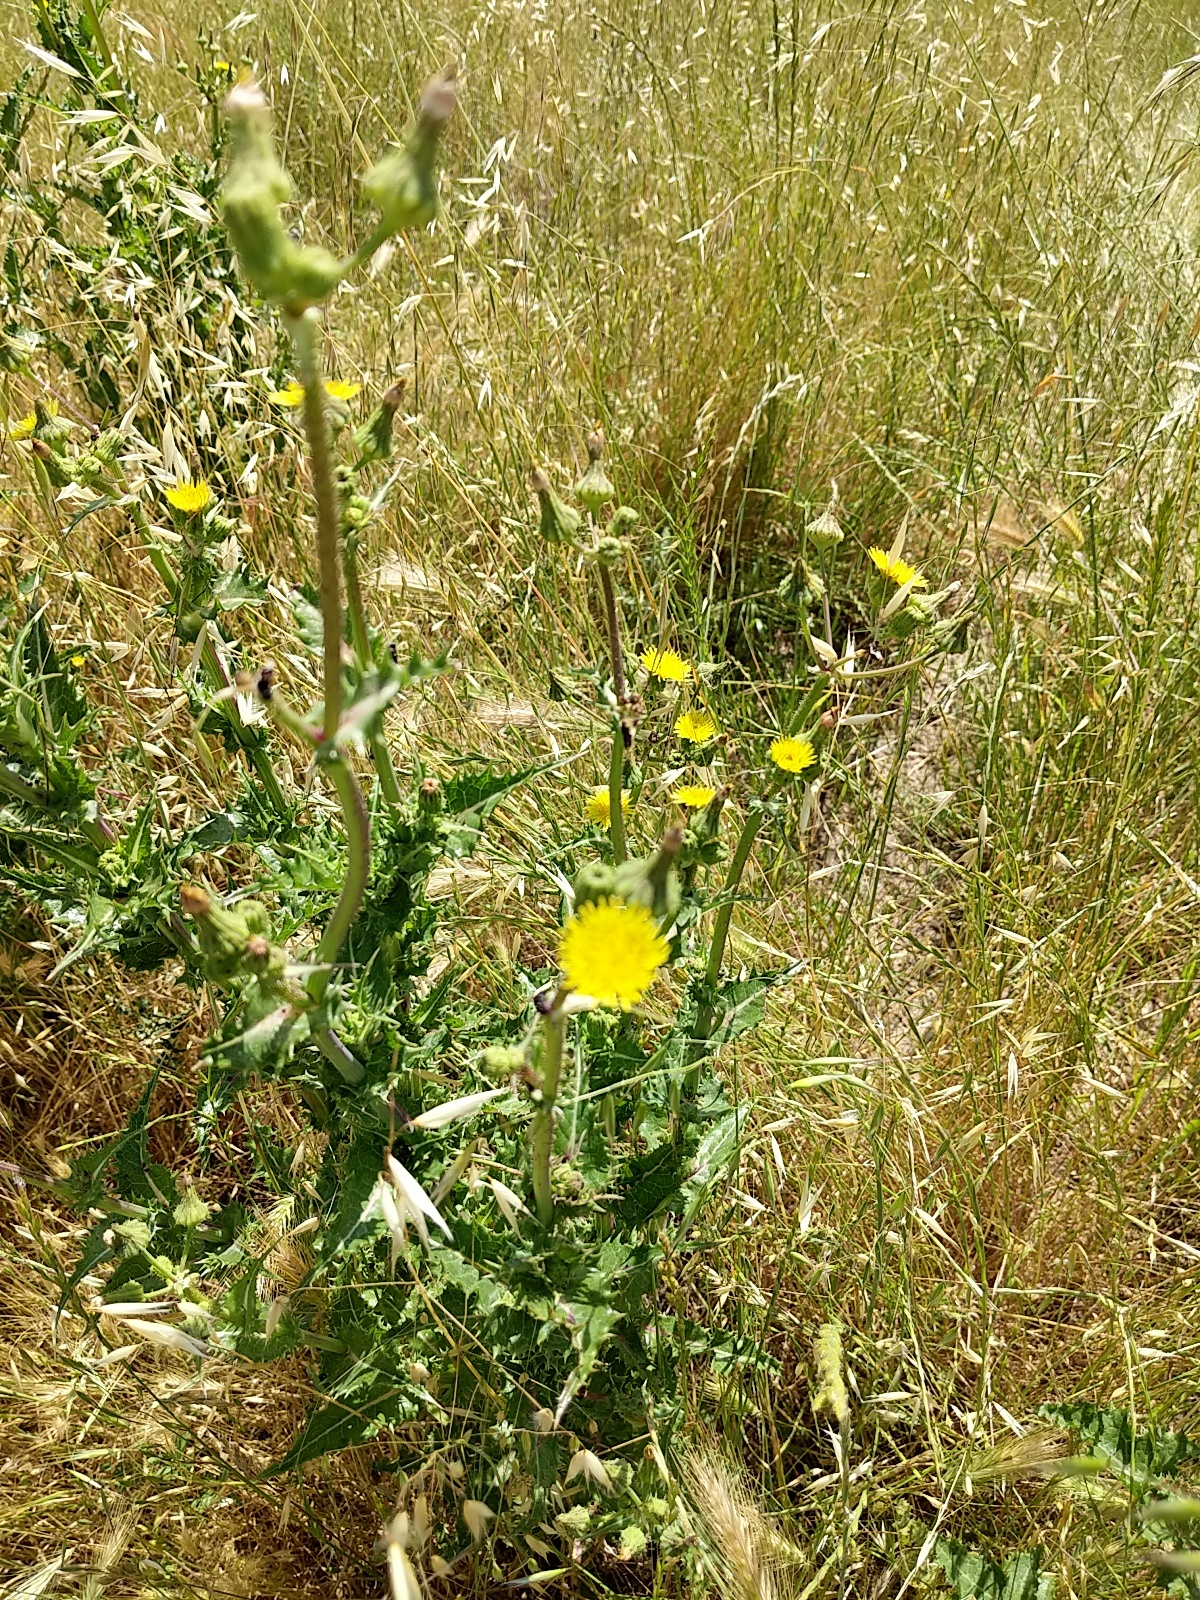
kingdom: Plantae
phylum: Tracheophyta
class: Magnoliopsida
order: Asterales
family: Asteraceae
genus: Sonchus
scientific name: Sonchus asper
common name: Prickly sow-thistle
